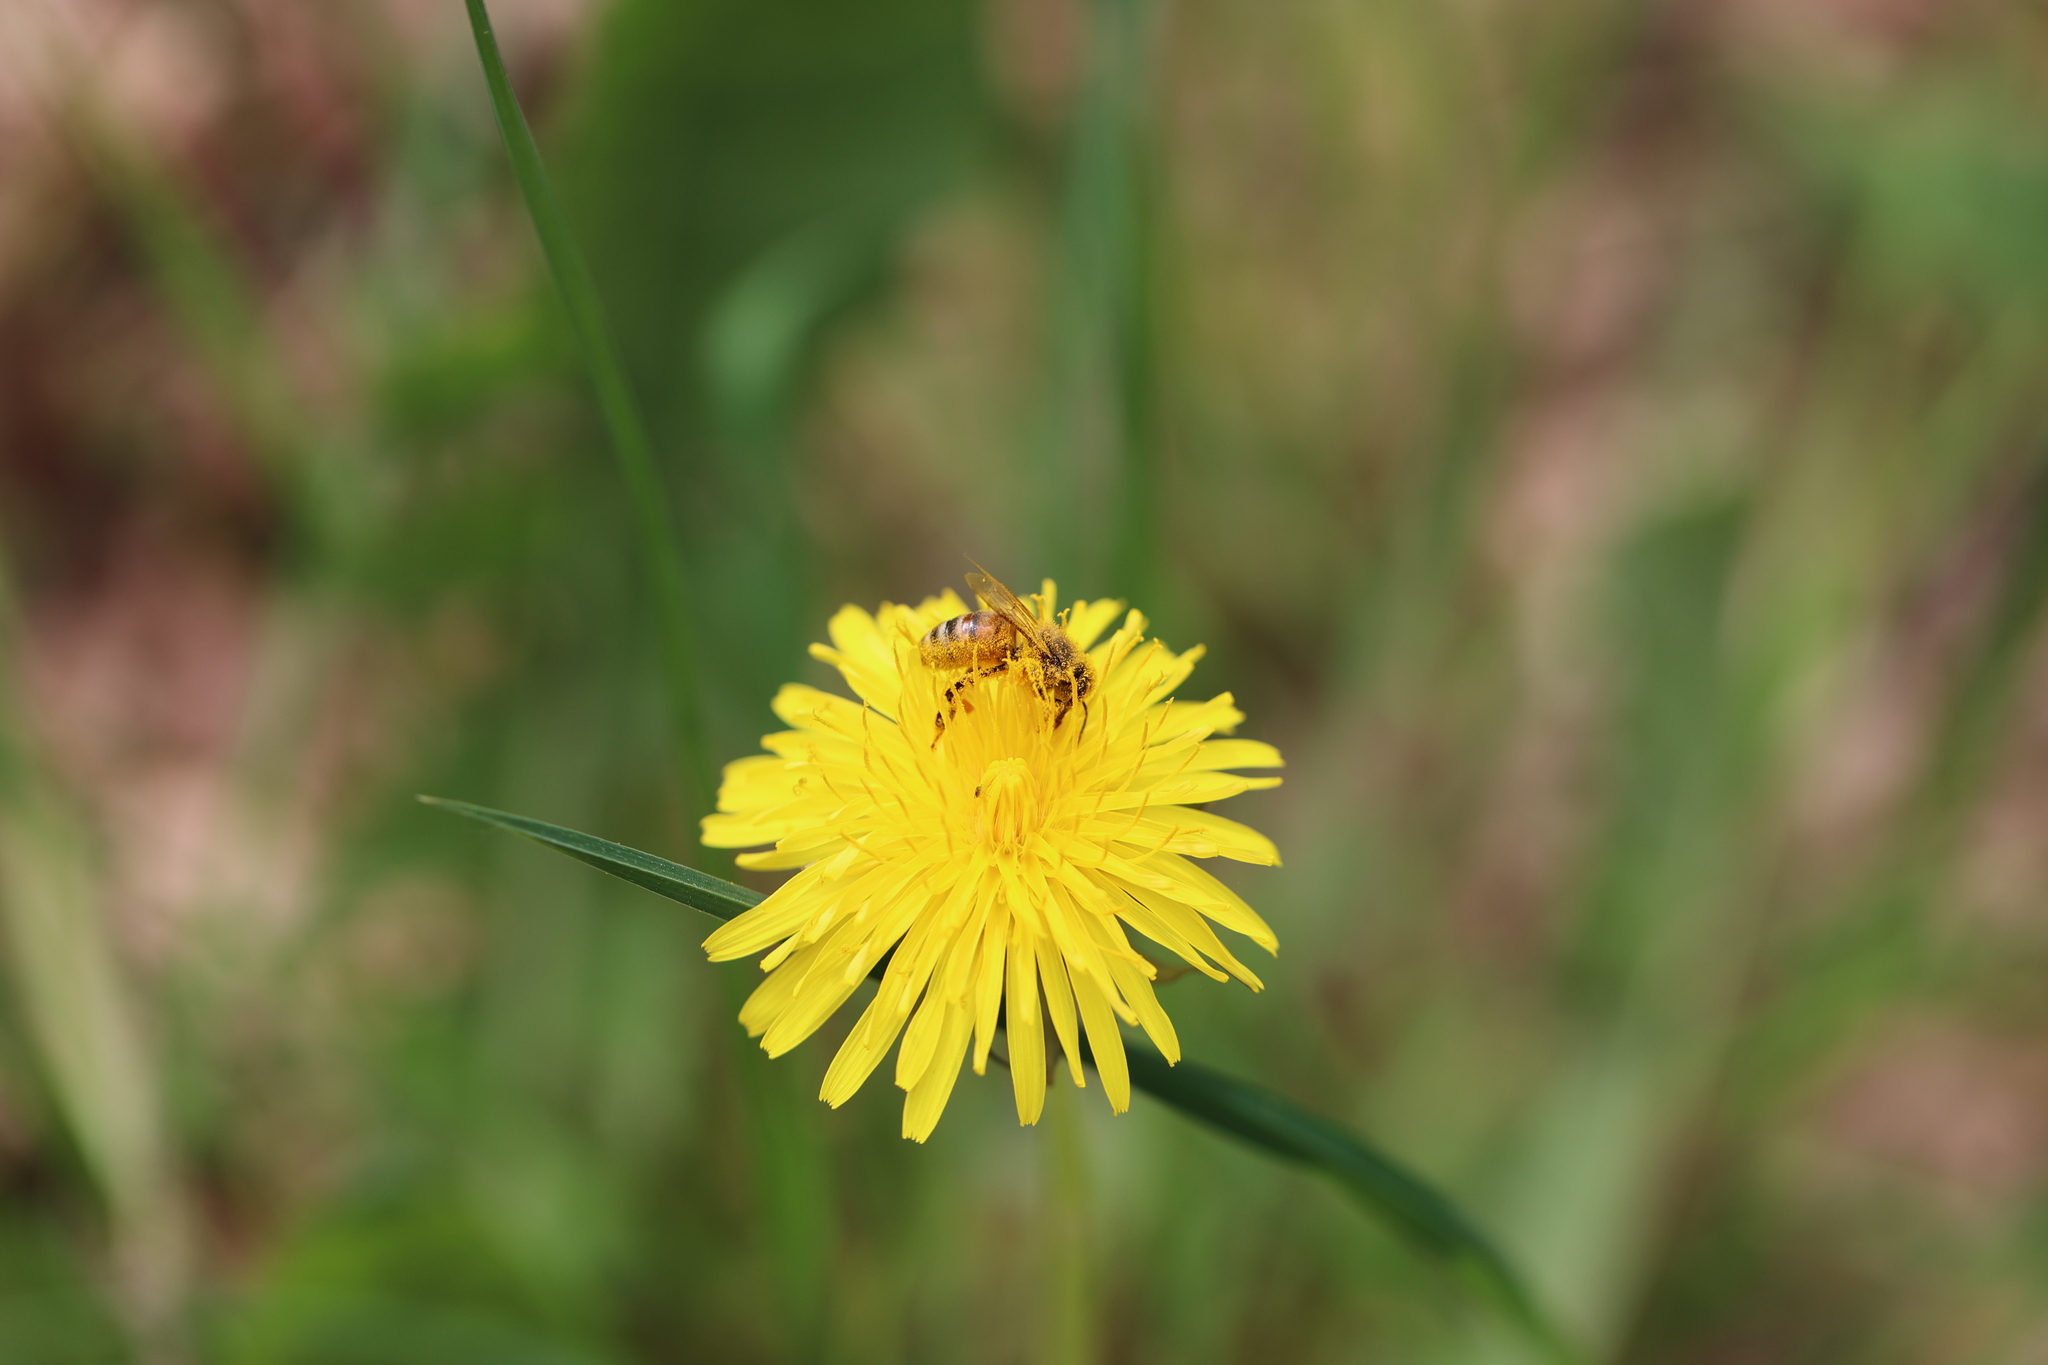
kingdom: Animalia
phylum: Arthropoda
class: Insecta
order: Hymenoptera
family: Apidae
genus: Apis
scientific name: Apis mellifera
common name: Honey bee
